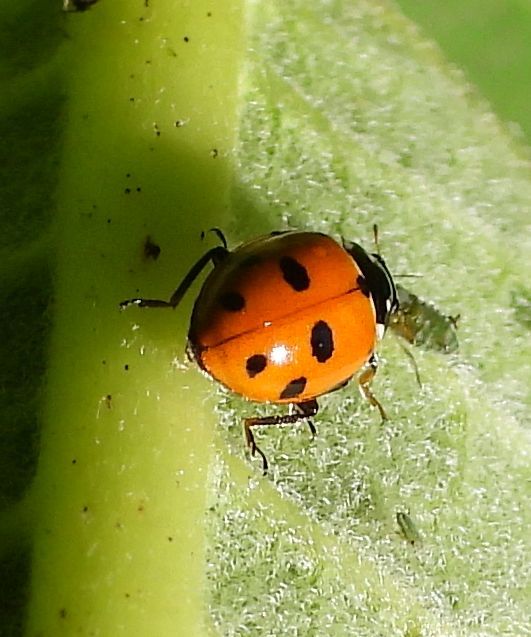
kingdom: Animalia
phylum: Arthropoda
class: Insecta
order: Coleoptera
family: Coccinellidae
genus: Coccinella
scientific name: Coccinella septempunctata
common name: Sevenspotted lady beetle
